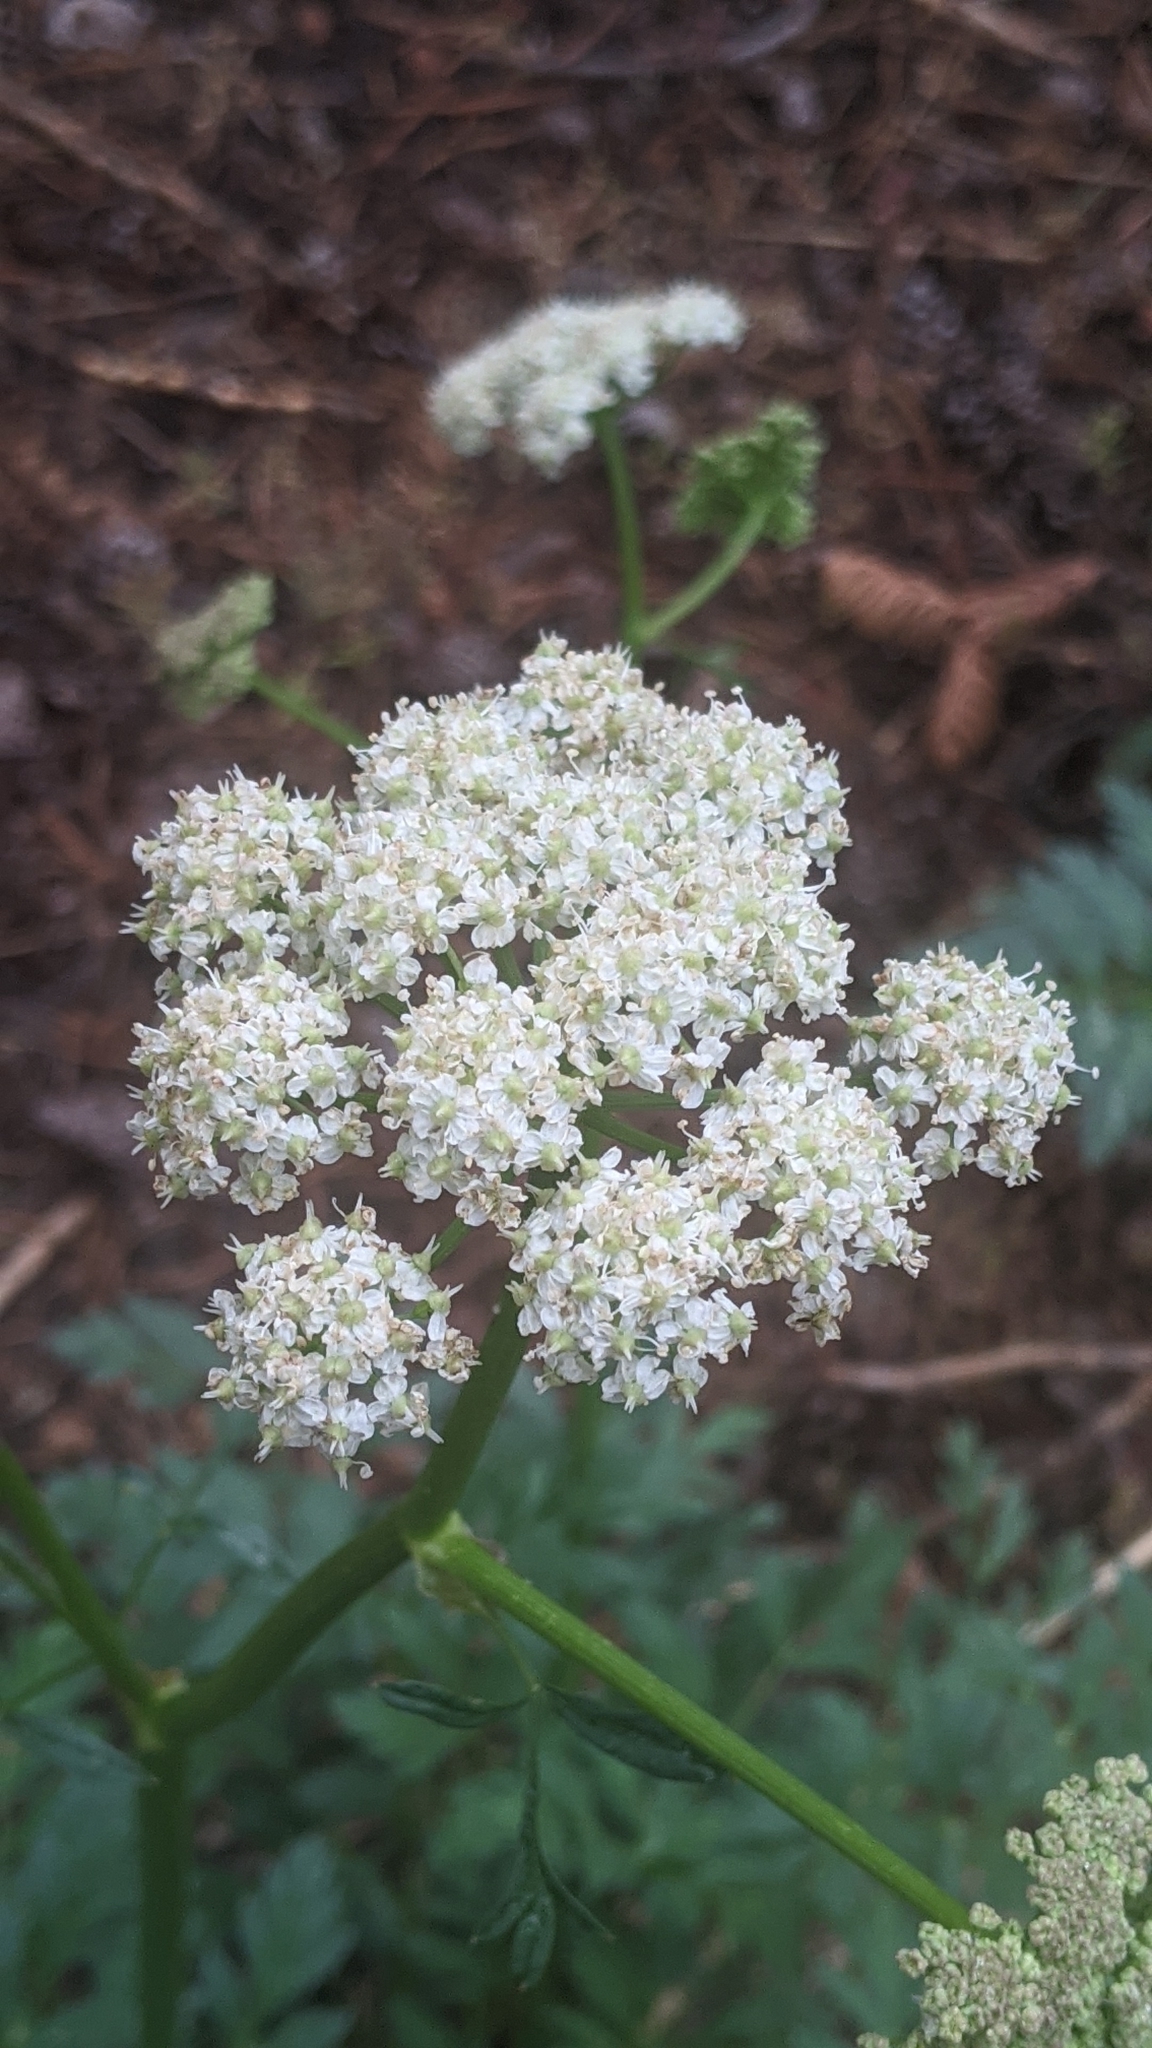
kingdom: Plantae
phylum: Tracheophyta
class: Magnoliopsida
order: Apiales
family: Apiaceae
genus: Ligusticum
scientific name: Ligusticum grayi
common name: Gray's licorice-root
